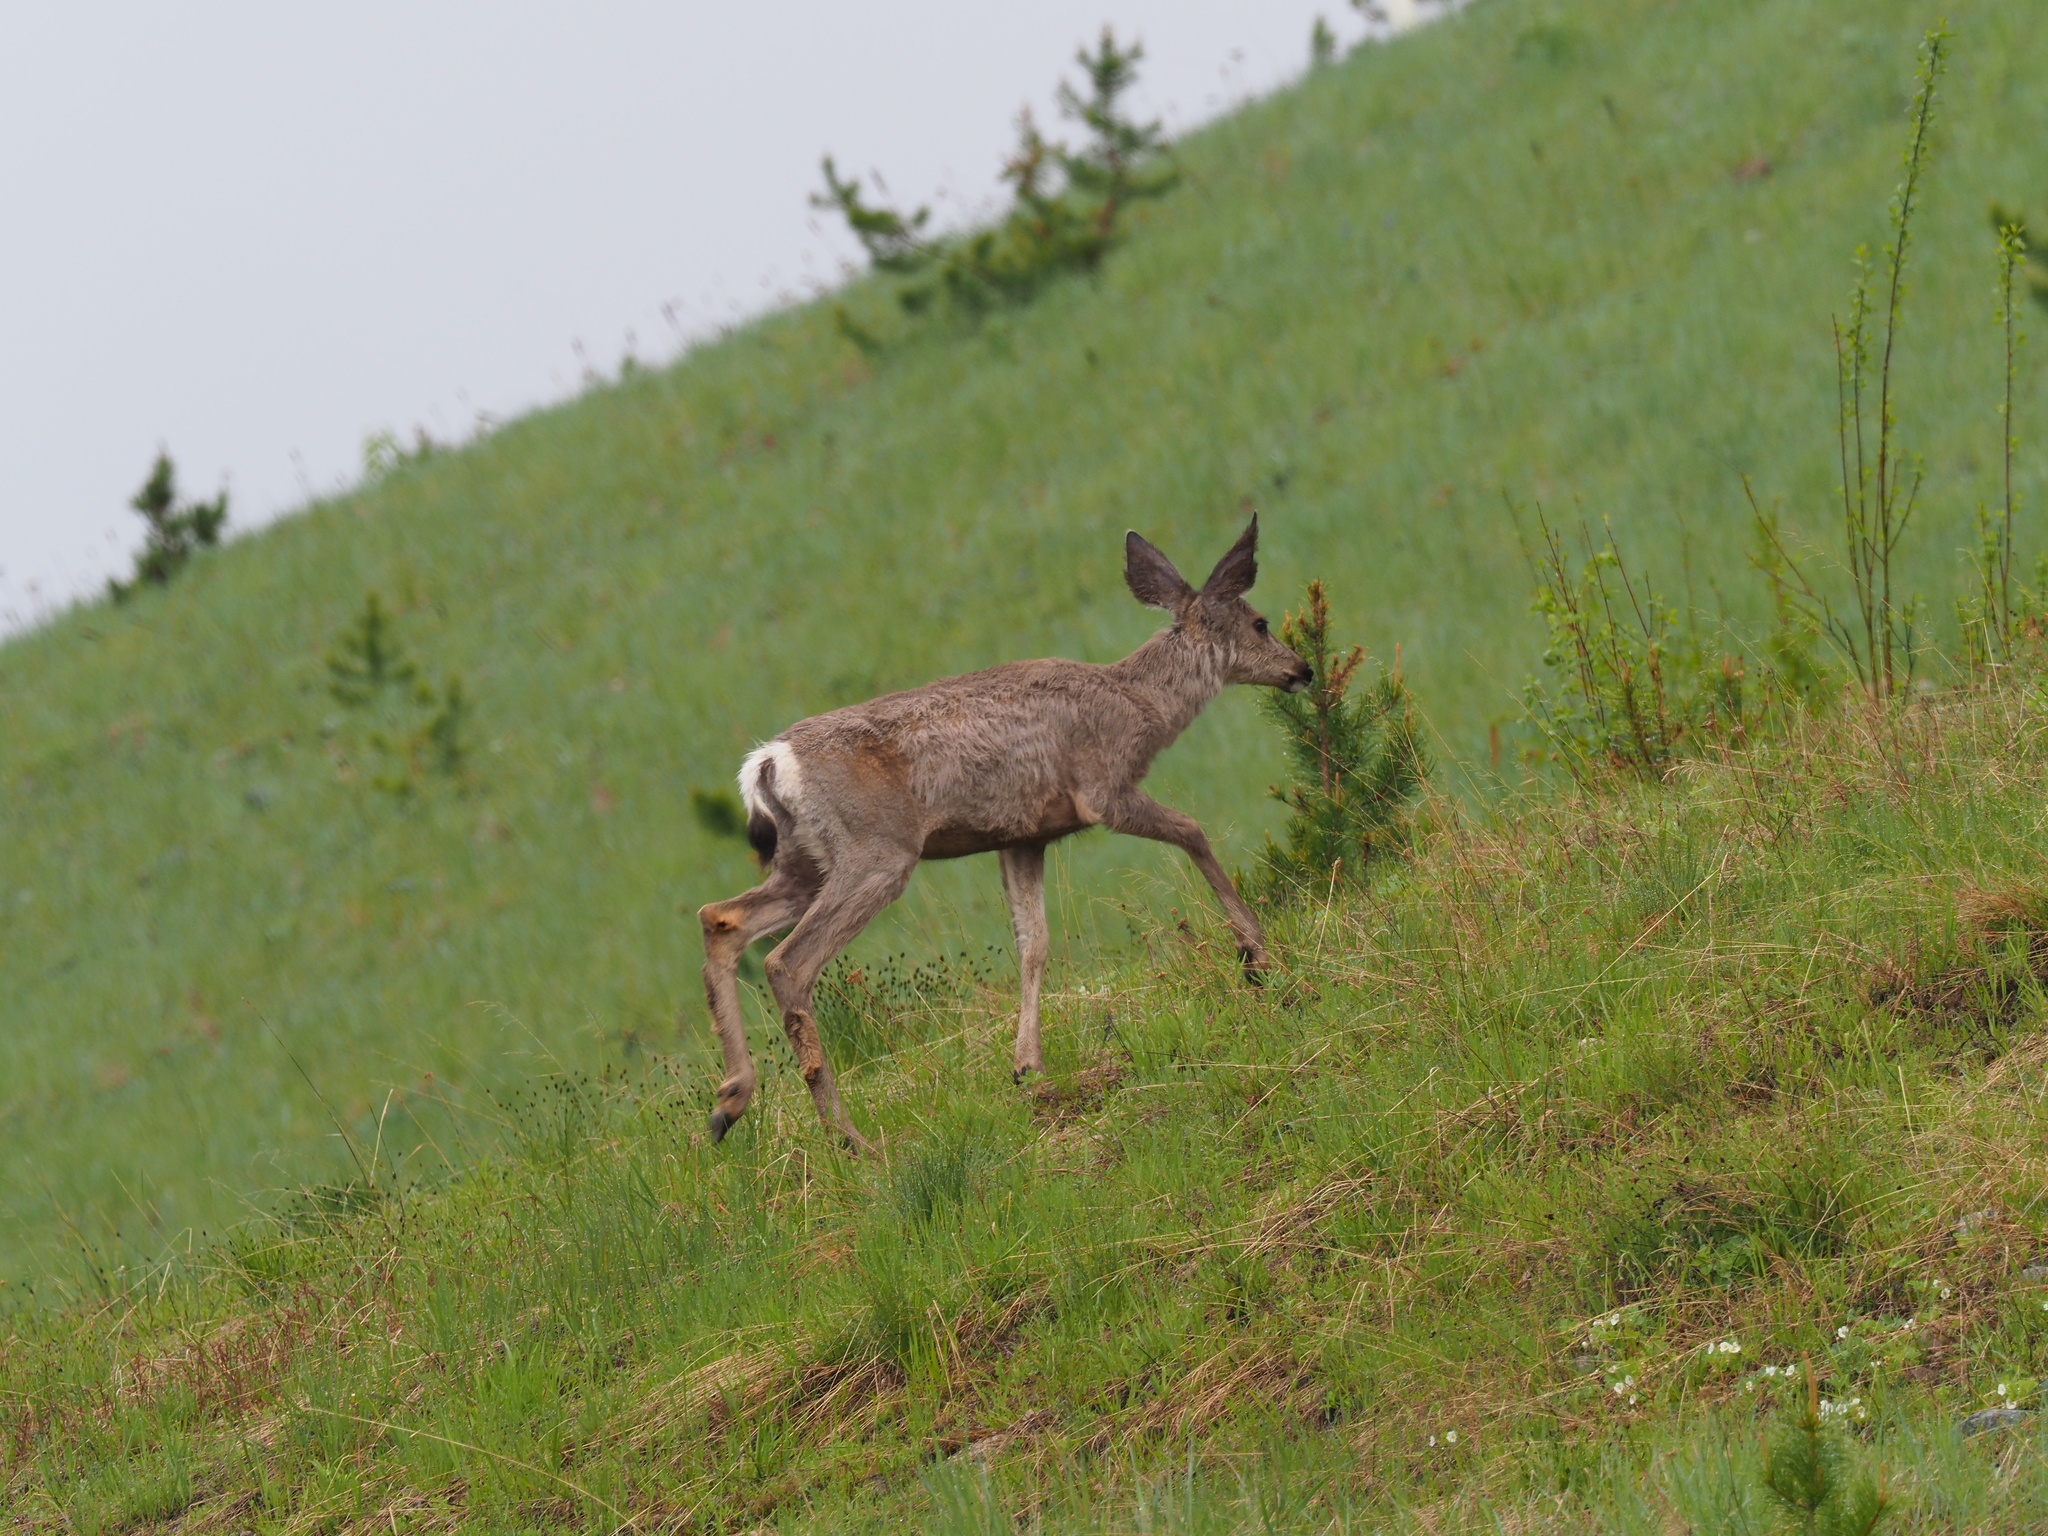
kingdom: Animalia
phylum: Chordata
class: Mammalia
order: Artiodactyla
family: Cervidae
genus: Odocoileus
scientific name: Odocoileus hemionus
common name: Mule deer
